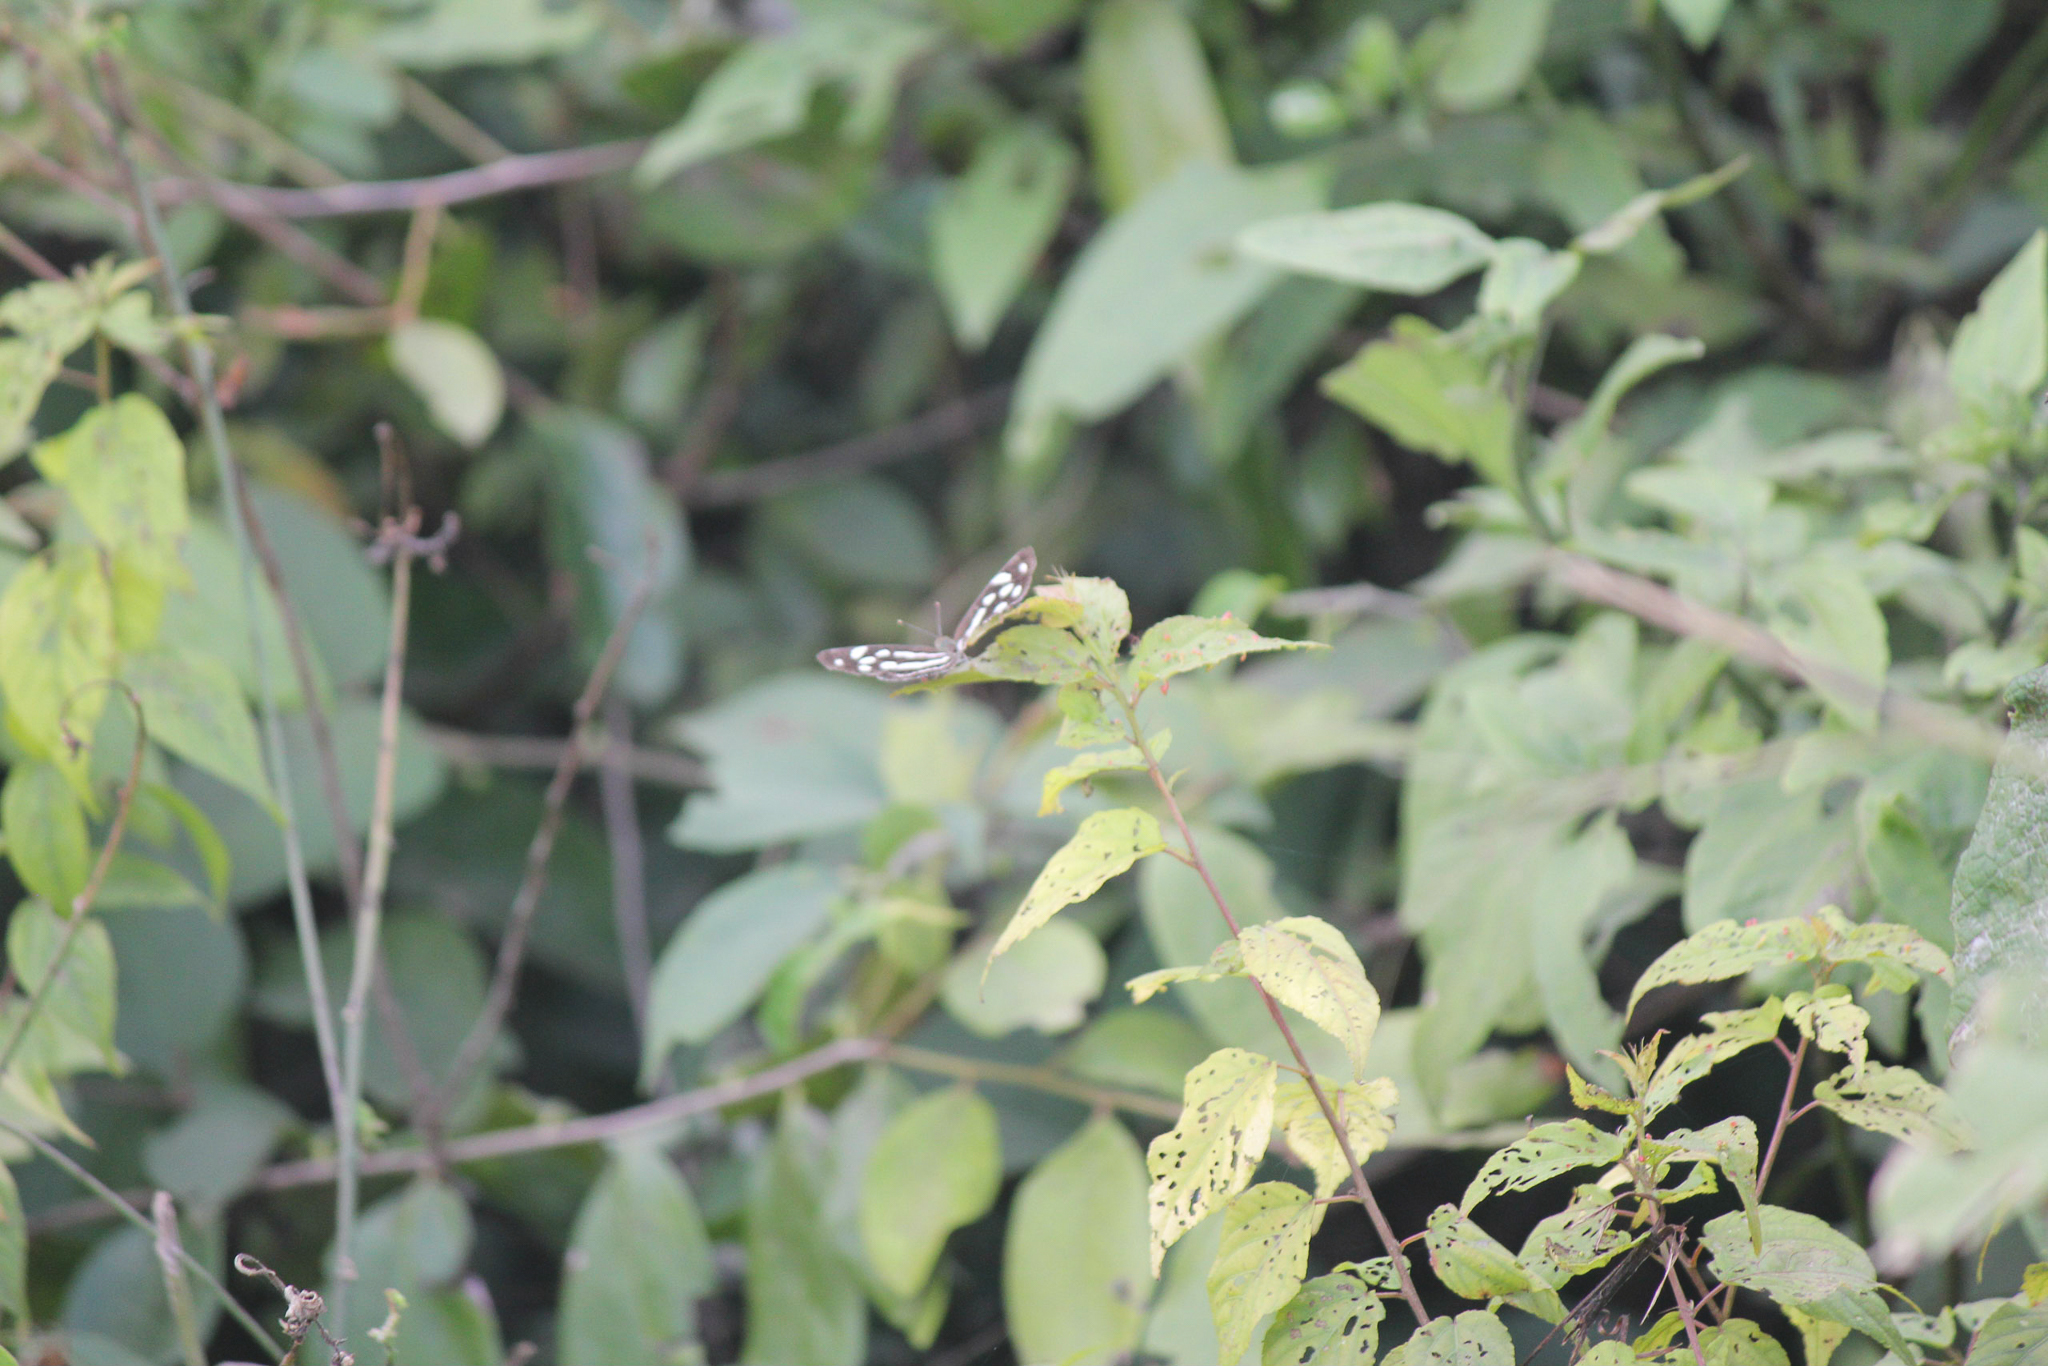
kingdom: Animalia
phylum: Arthropoda
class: Insecta
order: Lepidoptera
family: Nymphalidae
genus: Dynamine
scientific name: Dynamine mylitta
